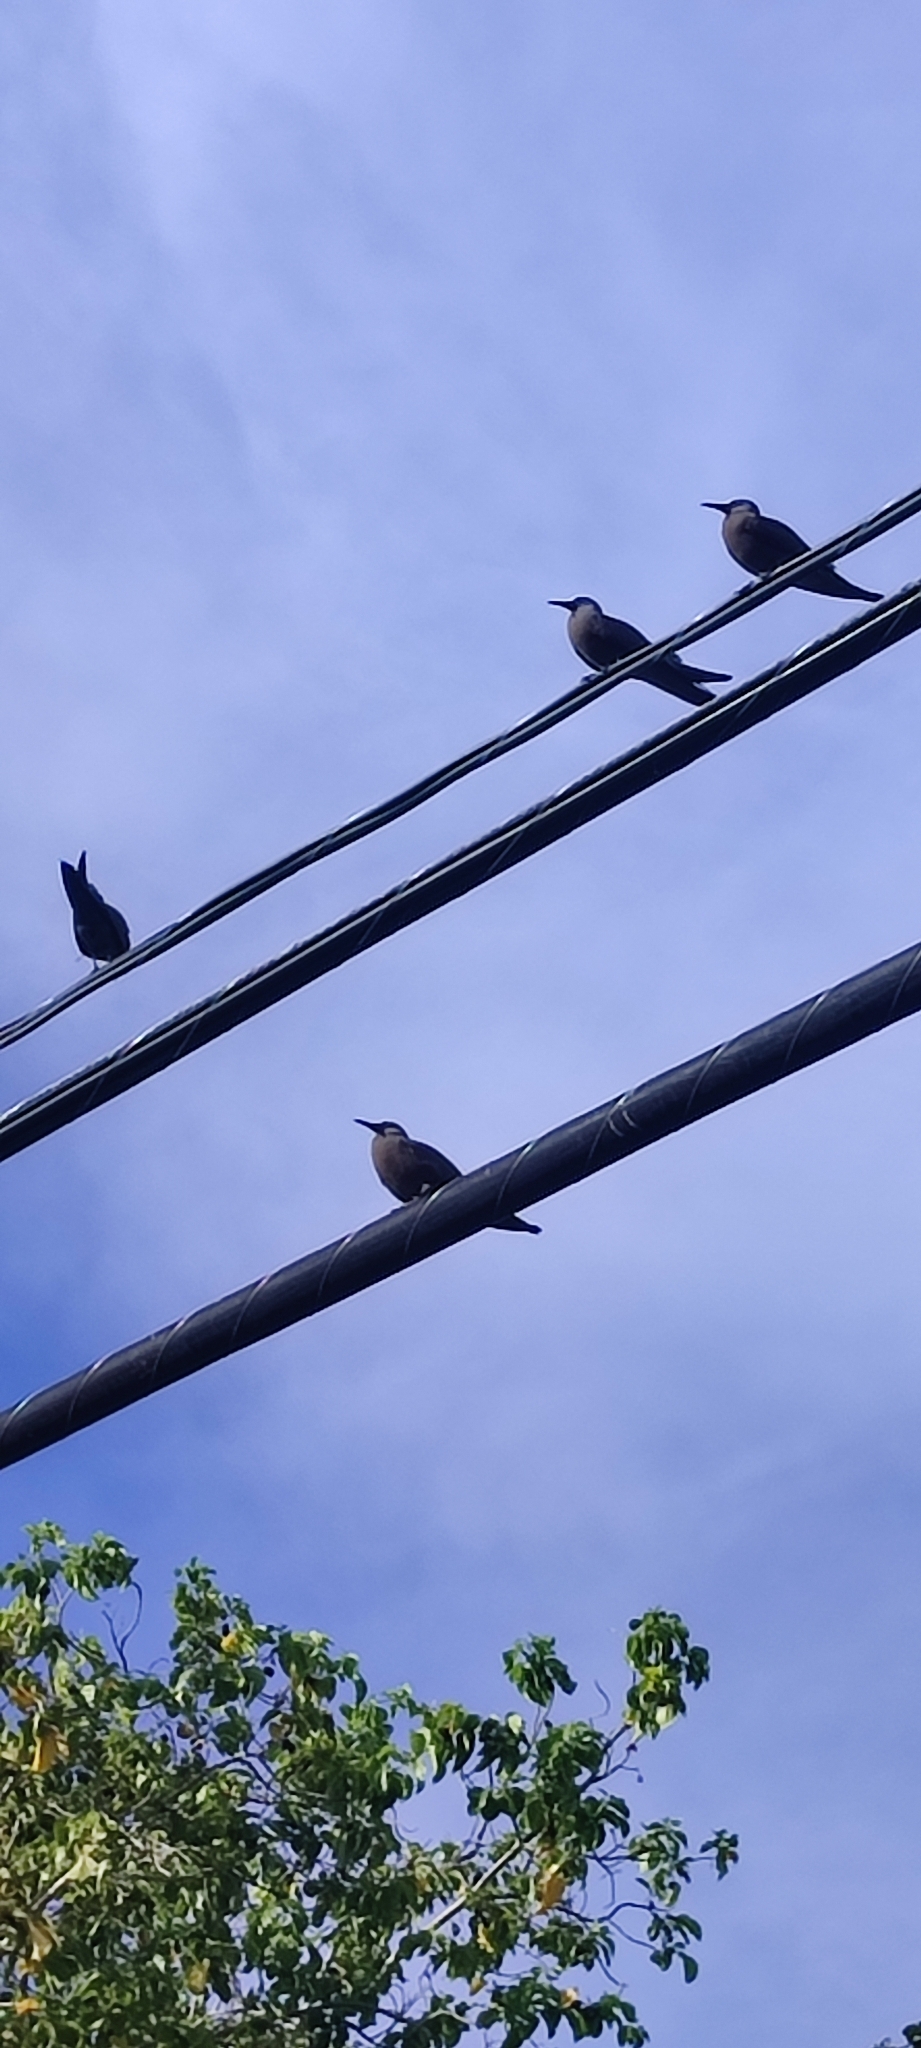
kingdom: Animalia
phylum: Chordata
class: Aves
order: Charadriiformes
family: Laridae
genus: Anous
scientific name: Anous stolidus
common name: Brown noddy
